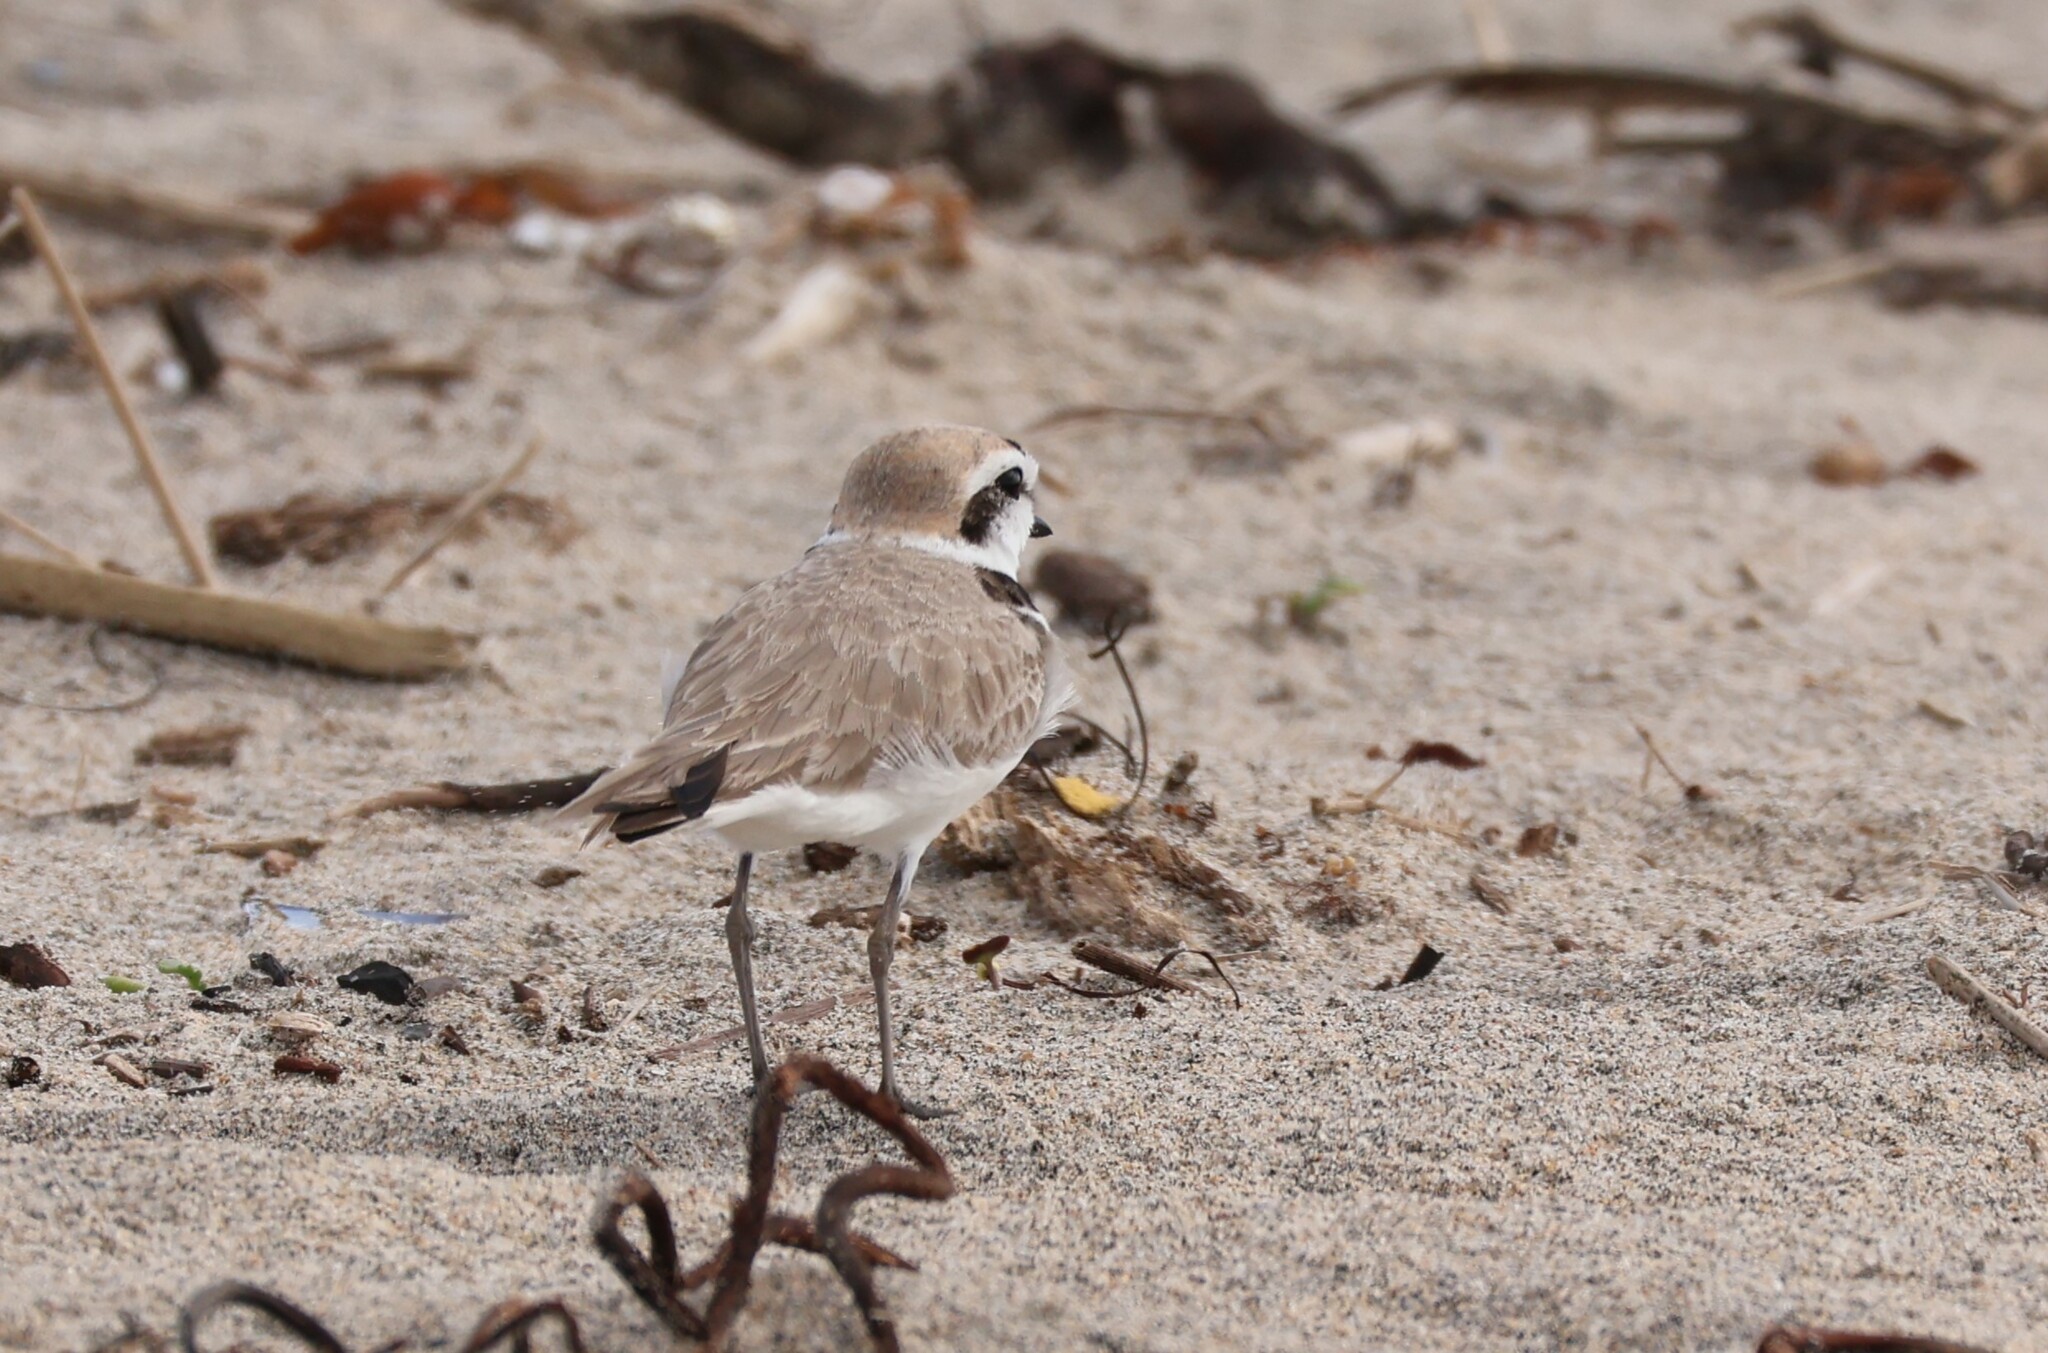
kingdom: Animalia
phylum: Chordata
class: Aves
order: Charadriiformes
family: Charadriidae
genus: Anarhynchus
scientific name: Anarhynchus
